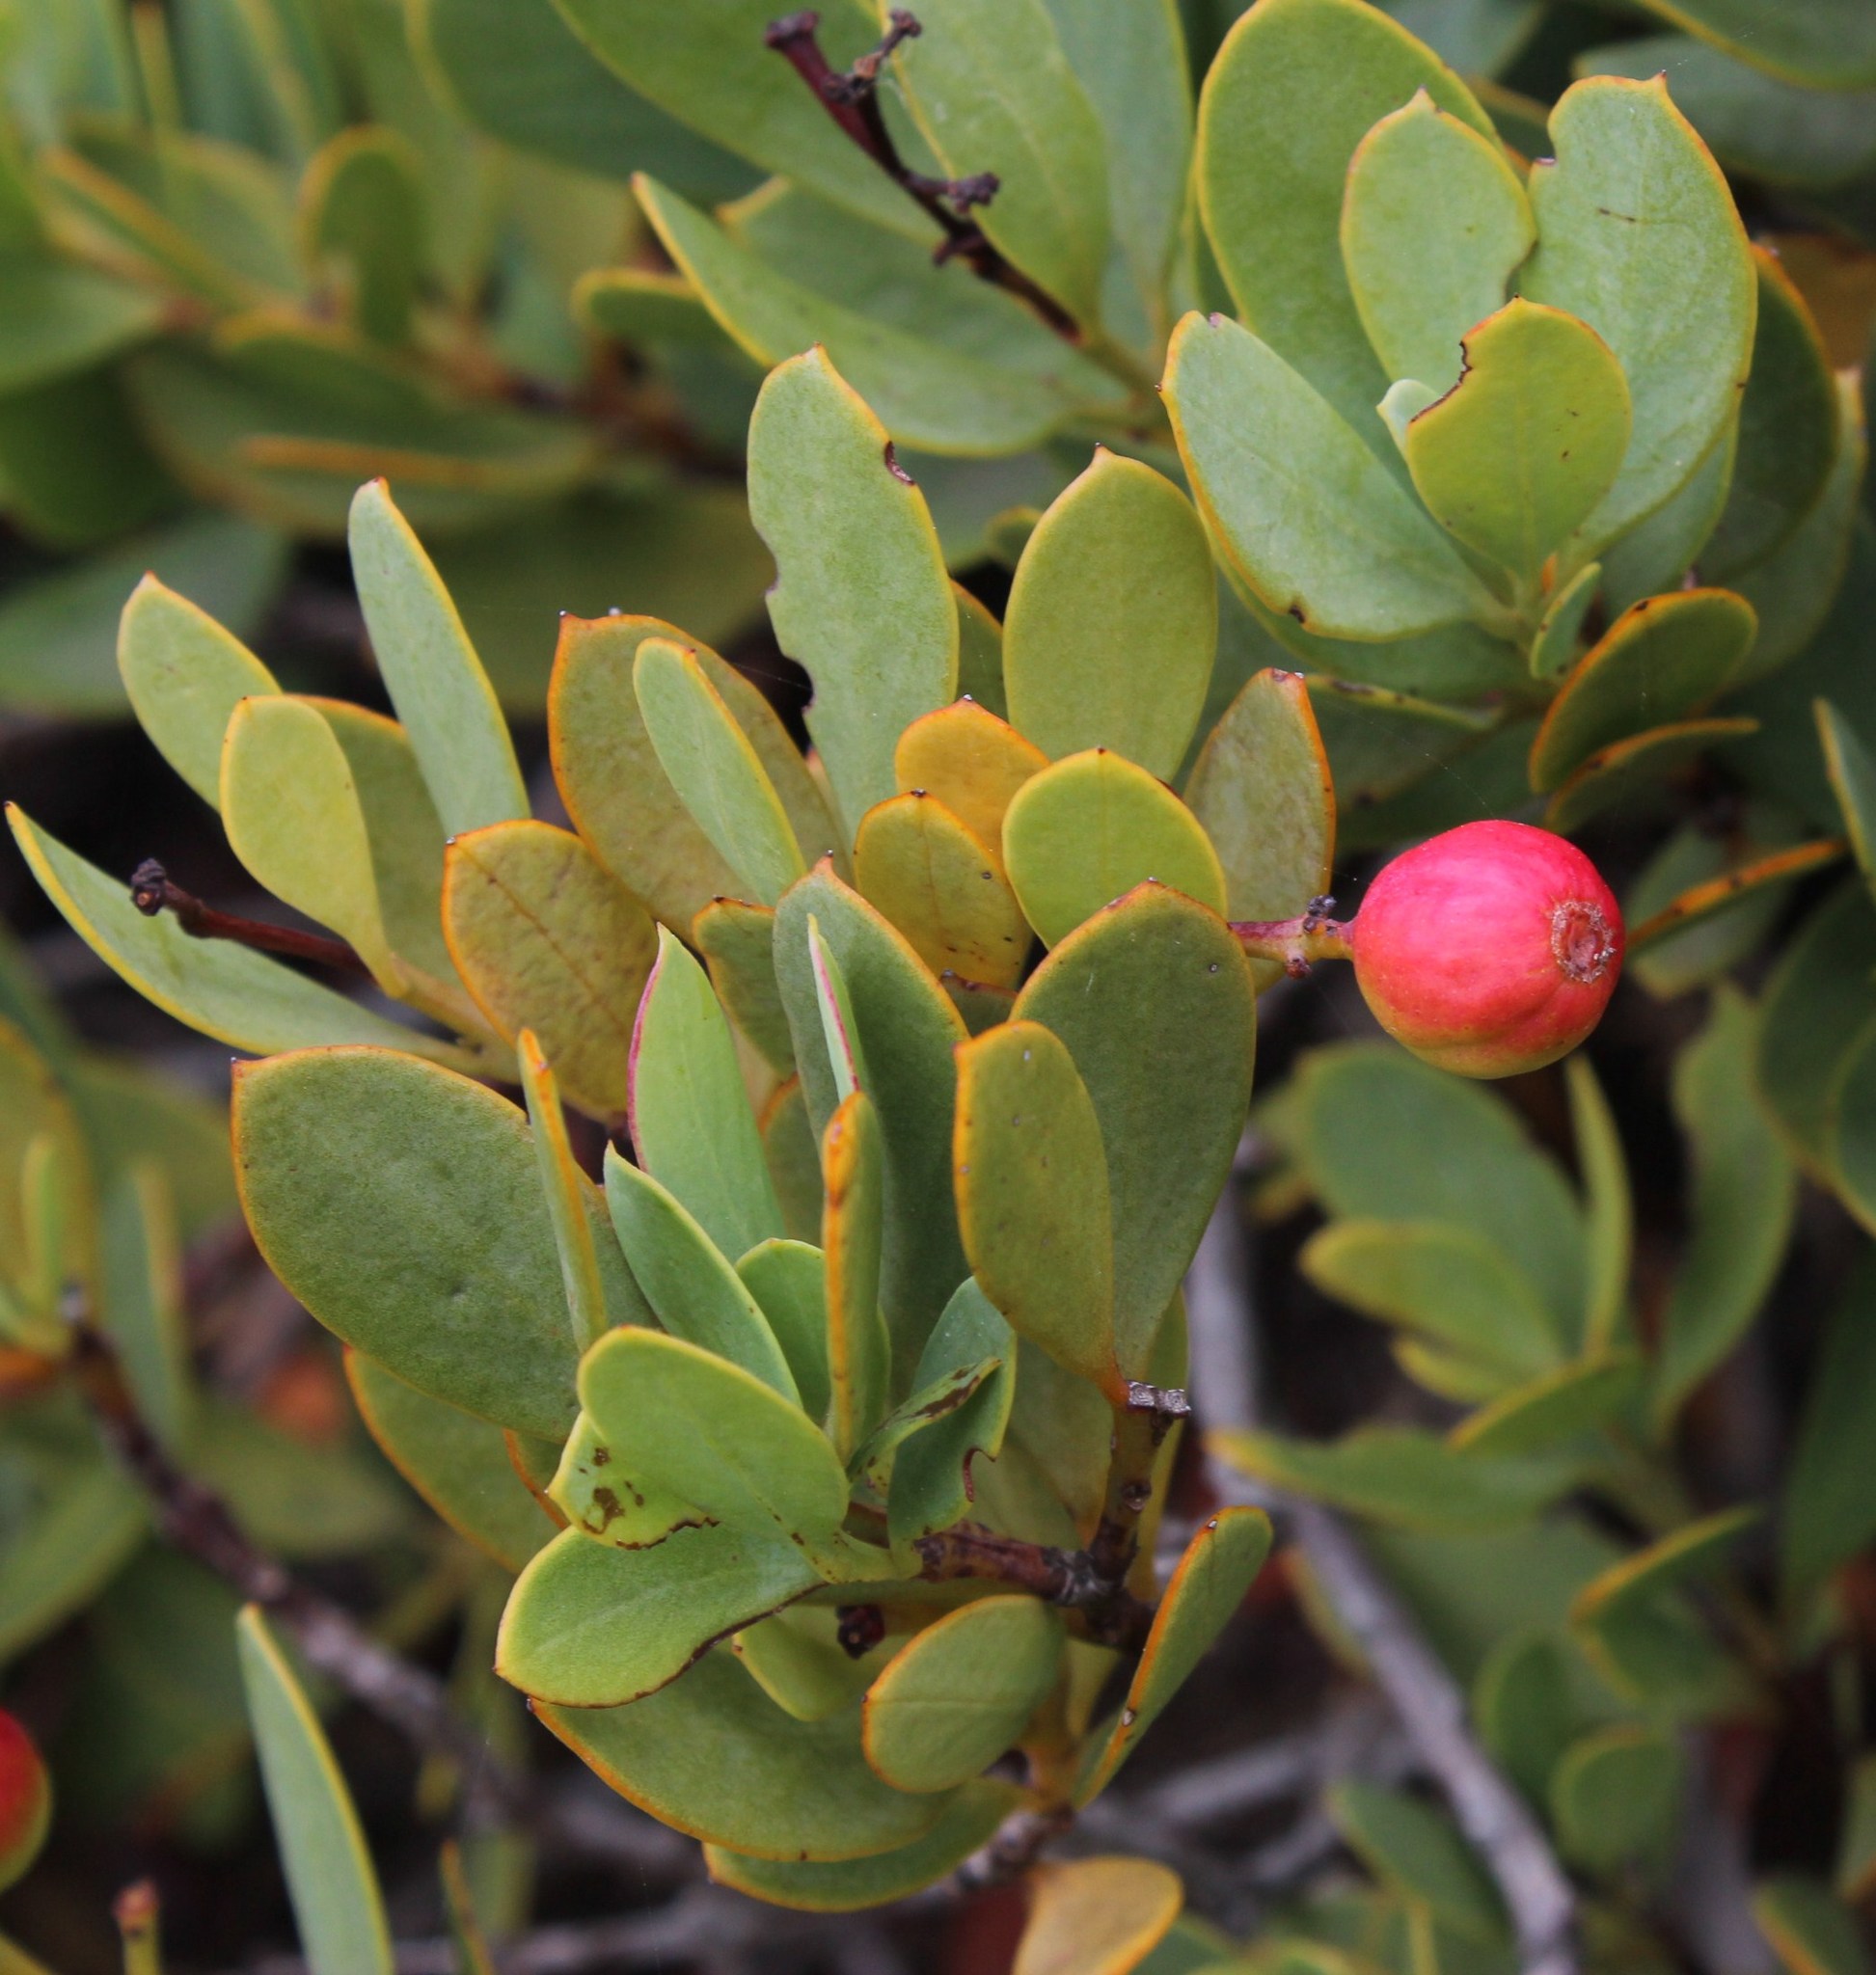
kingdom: Plantae
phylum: Tracheophyta
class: Magnoliopsida
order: Santalales
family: Santalaceae
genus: Osyris
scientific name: Osyris compressa
